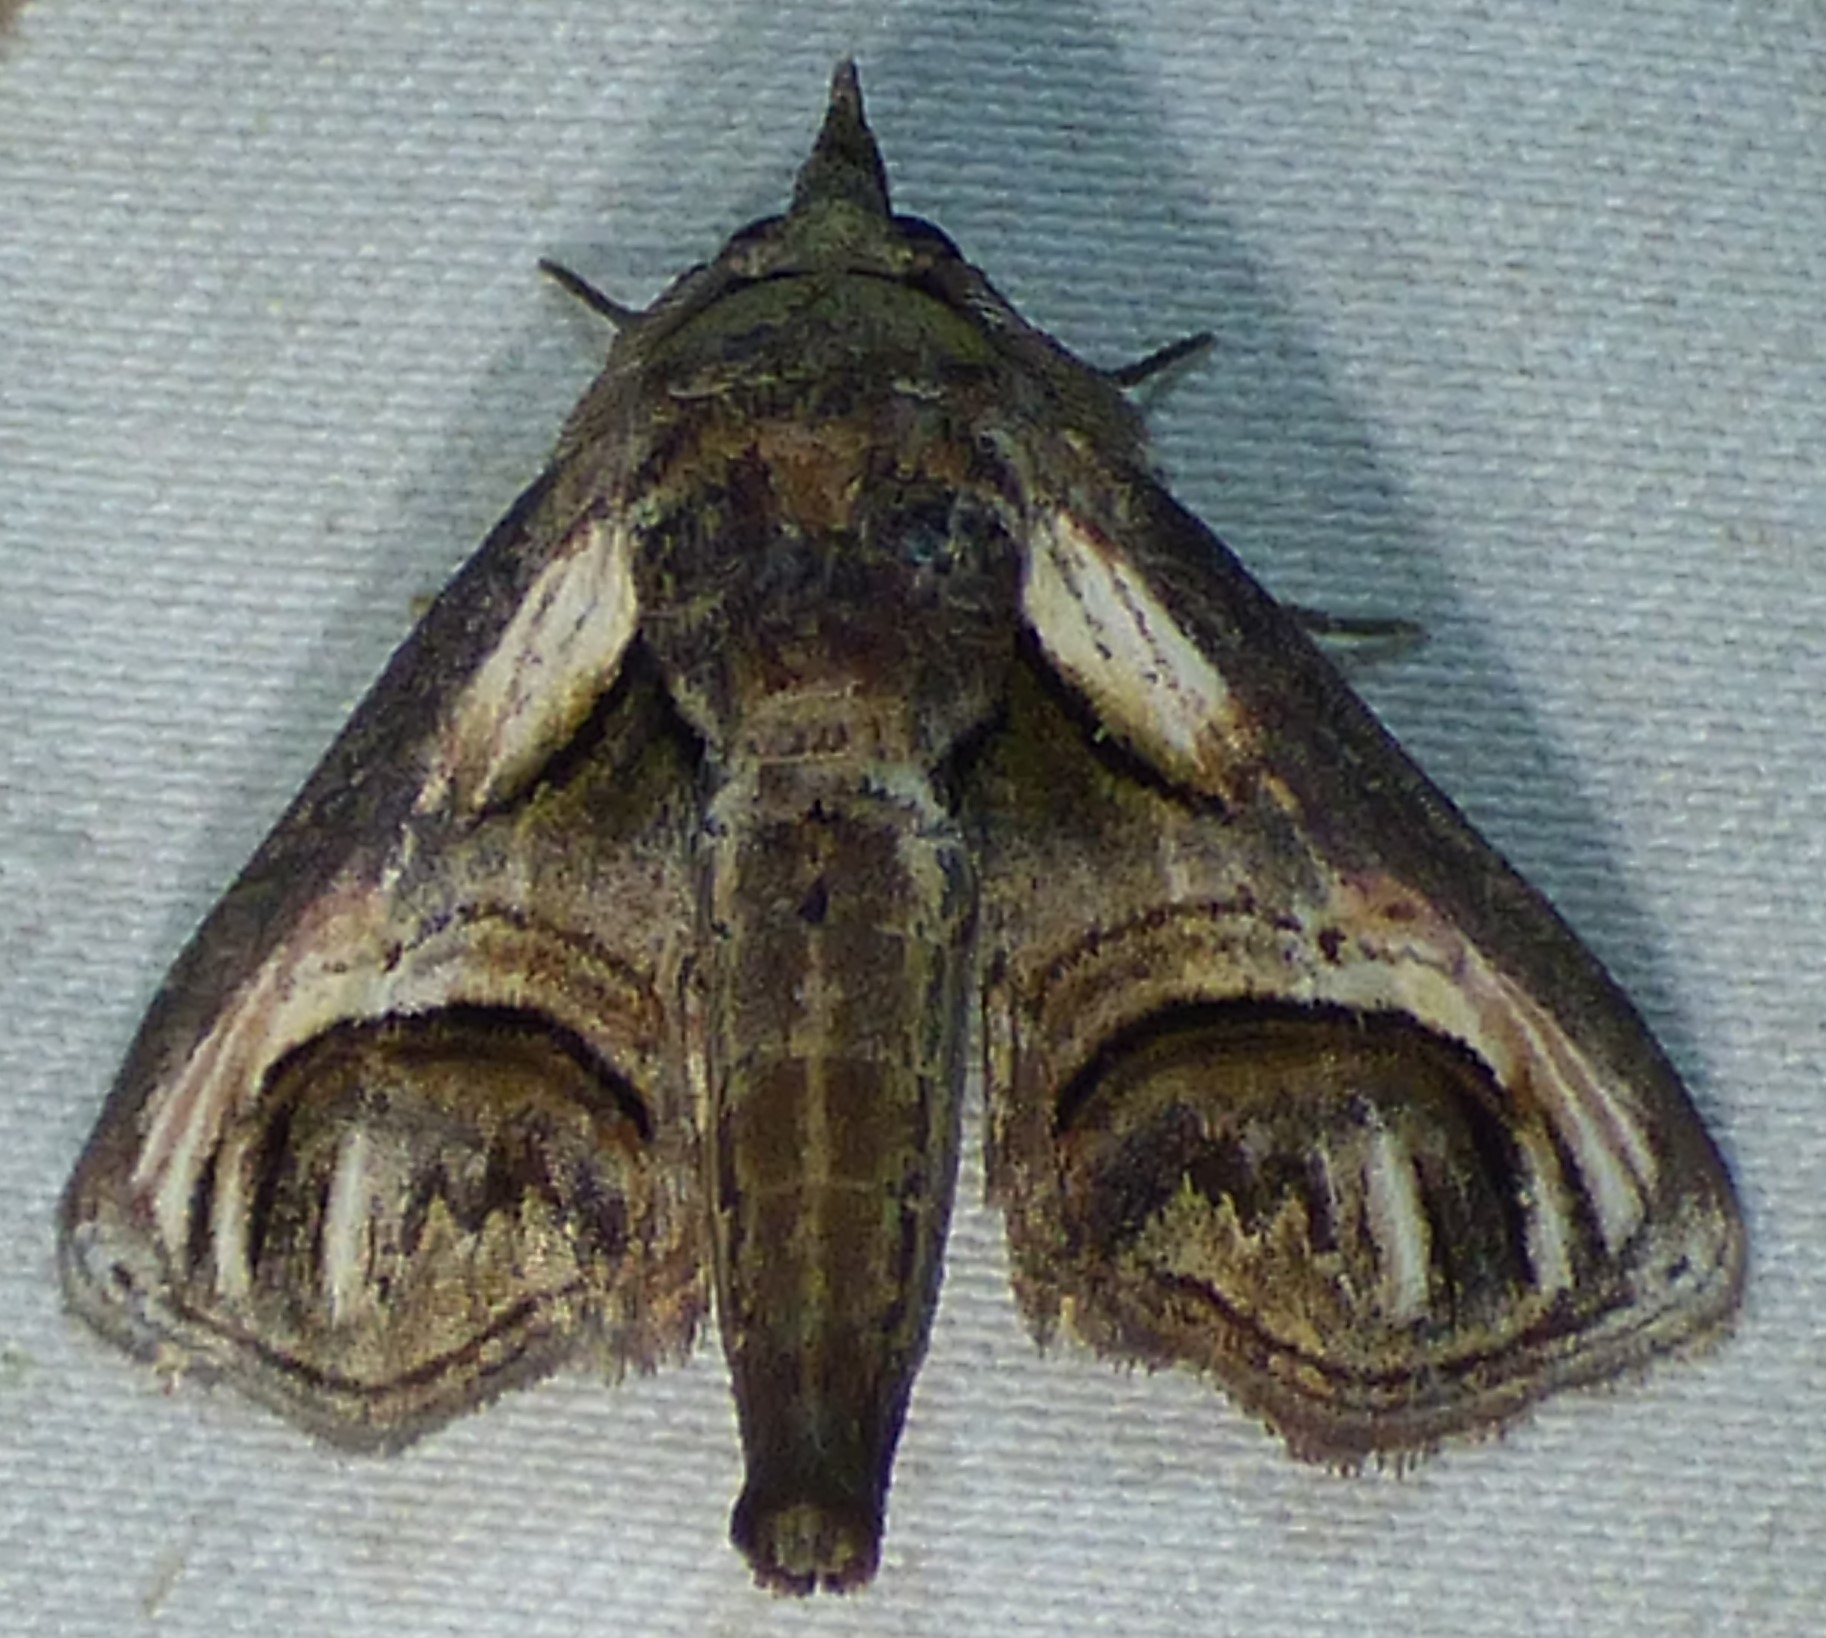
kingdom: Animalia
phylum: Arthropoda
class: Insecta
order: Lepidoptera
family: Euteliidae
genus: Paectes
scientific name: Paectes oculatrix
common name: Eyed paectes moth
